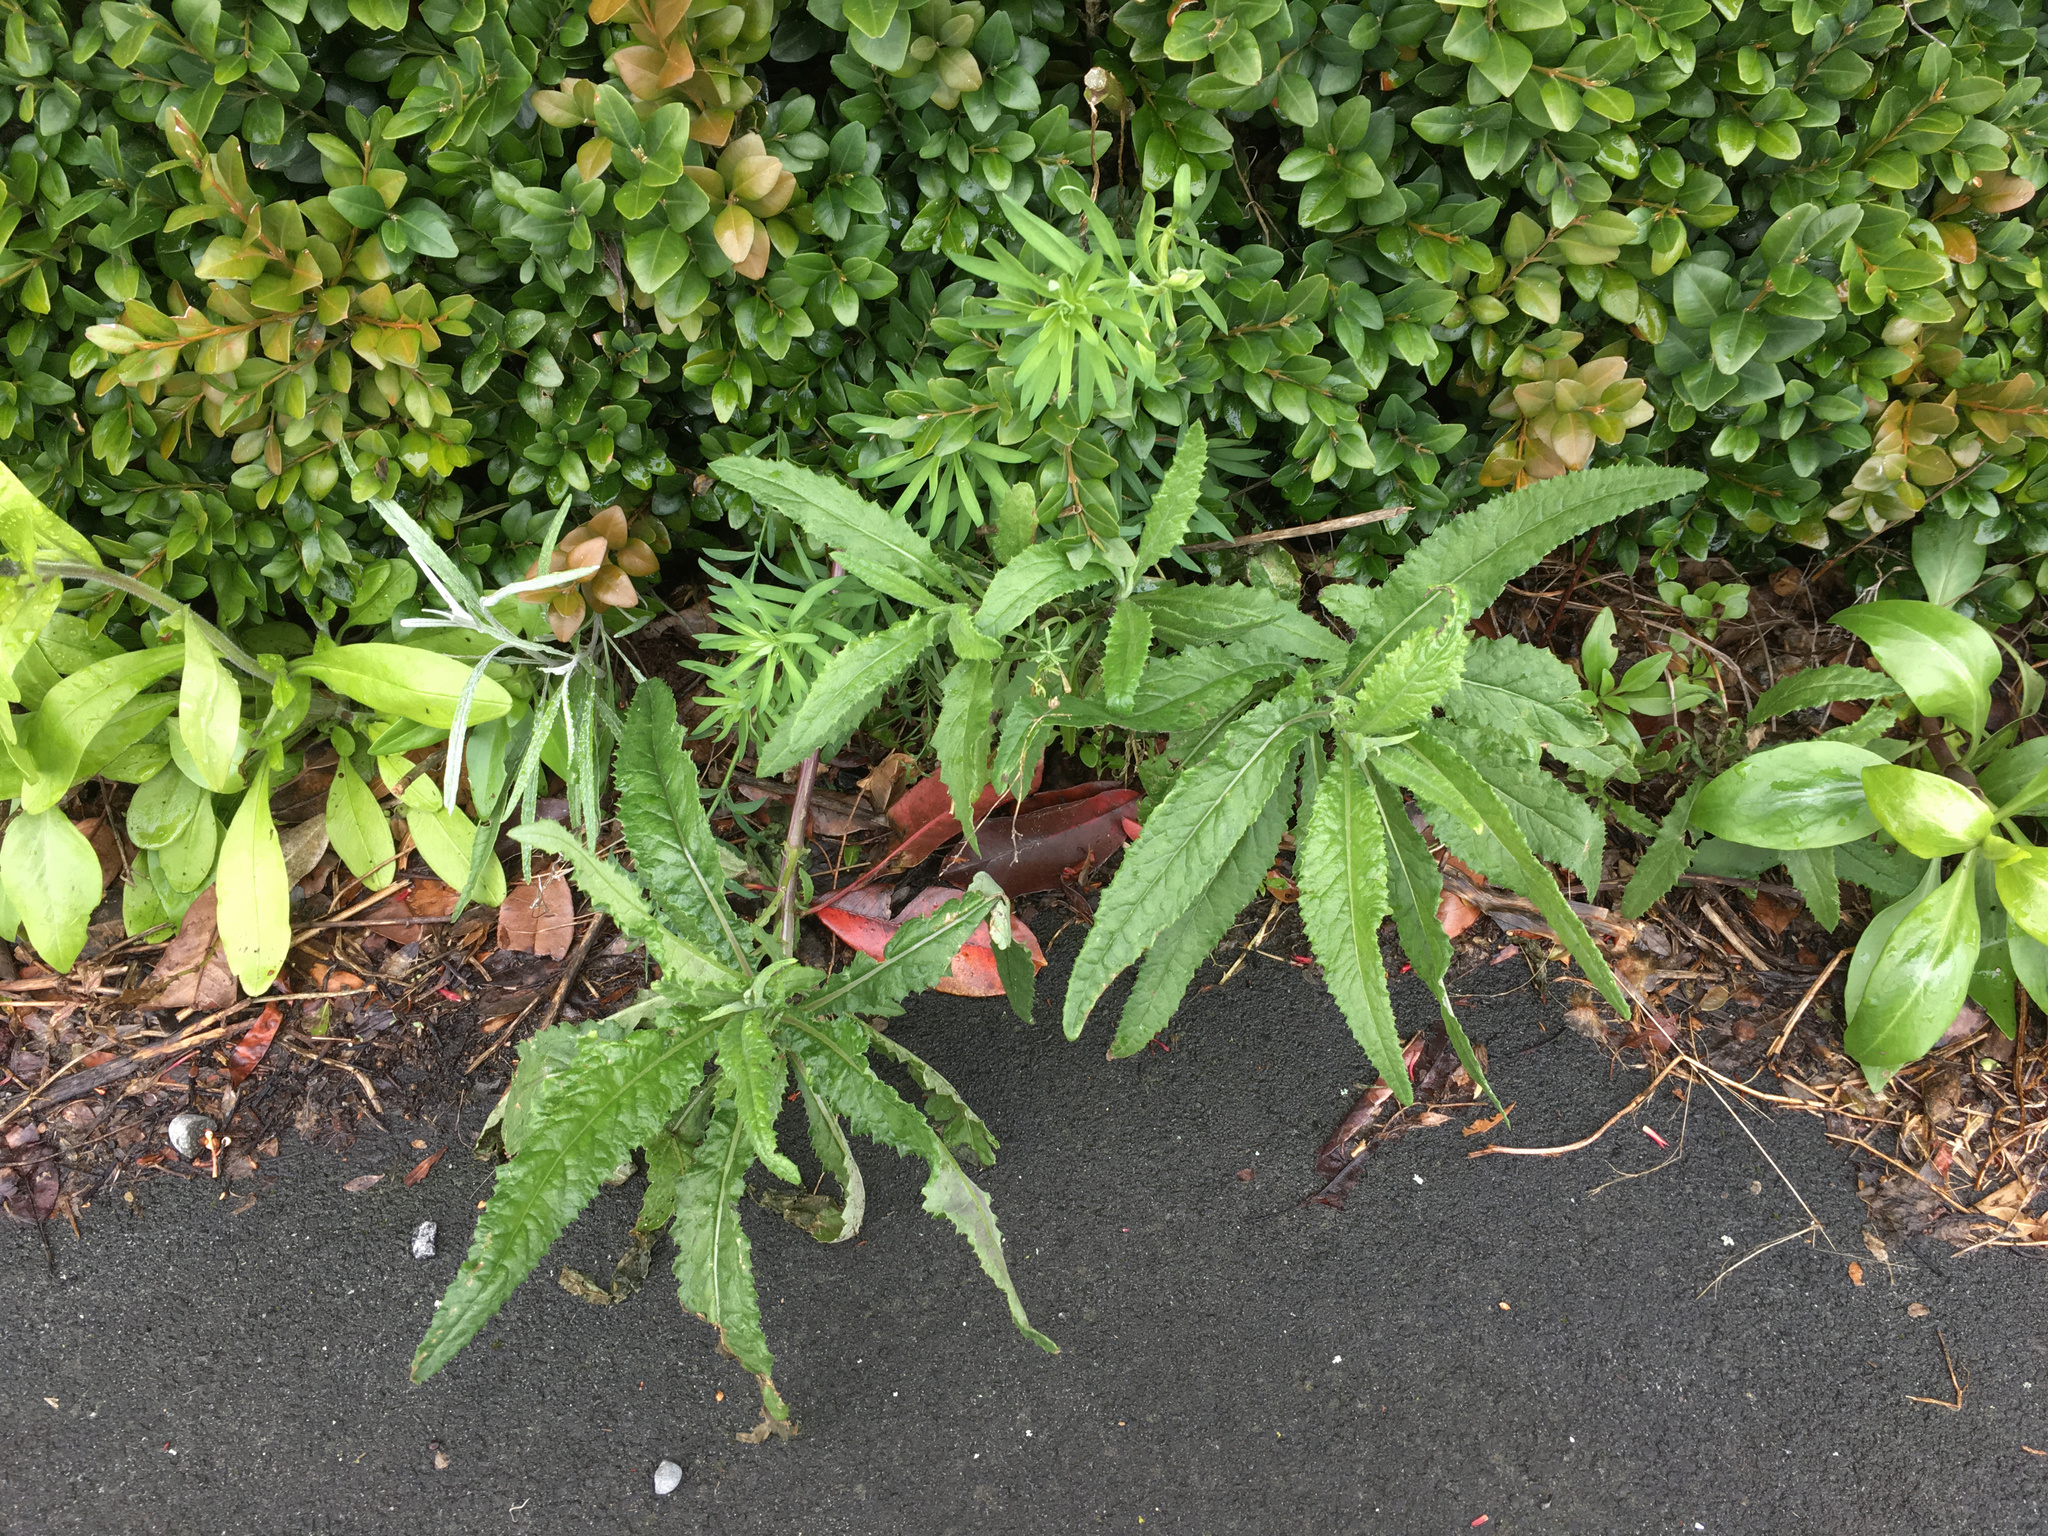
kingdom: Plantae
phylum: Tracheophyta
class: Magnoliopsida
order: Asterales
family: Asteraceae
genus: Senecio
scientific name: Senecio minimus
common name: Toothed fireweed
